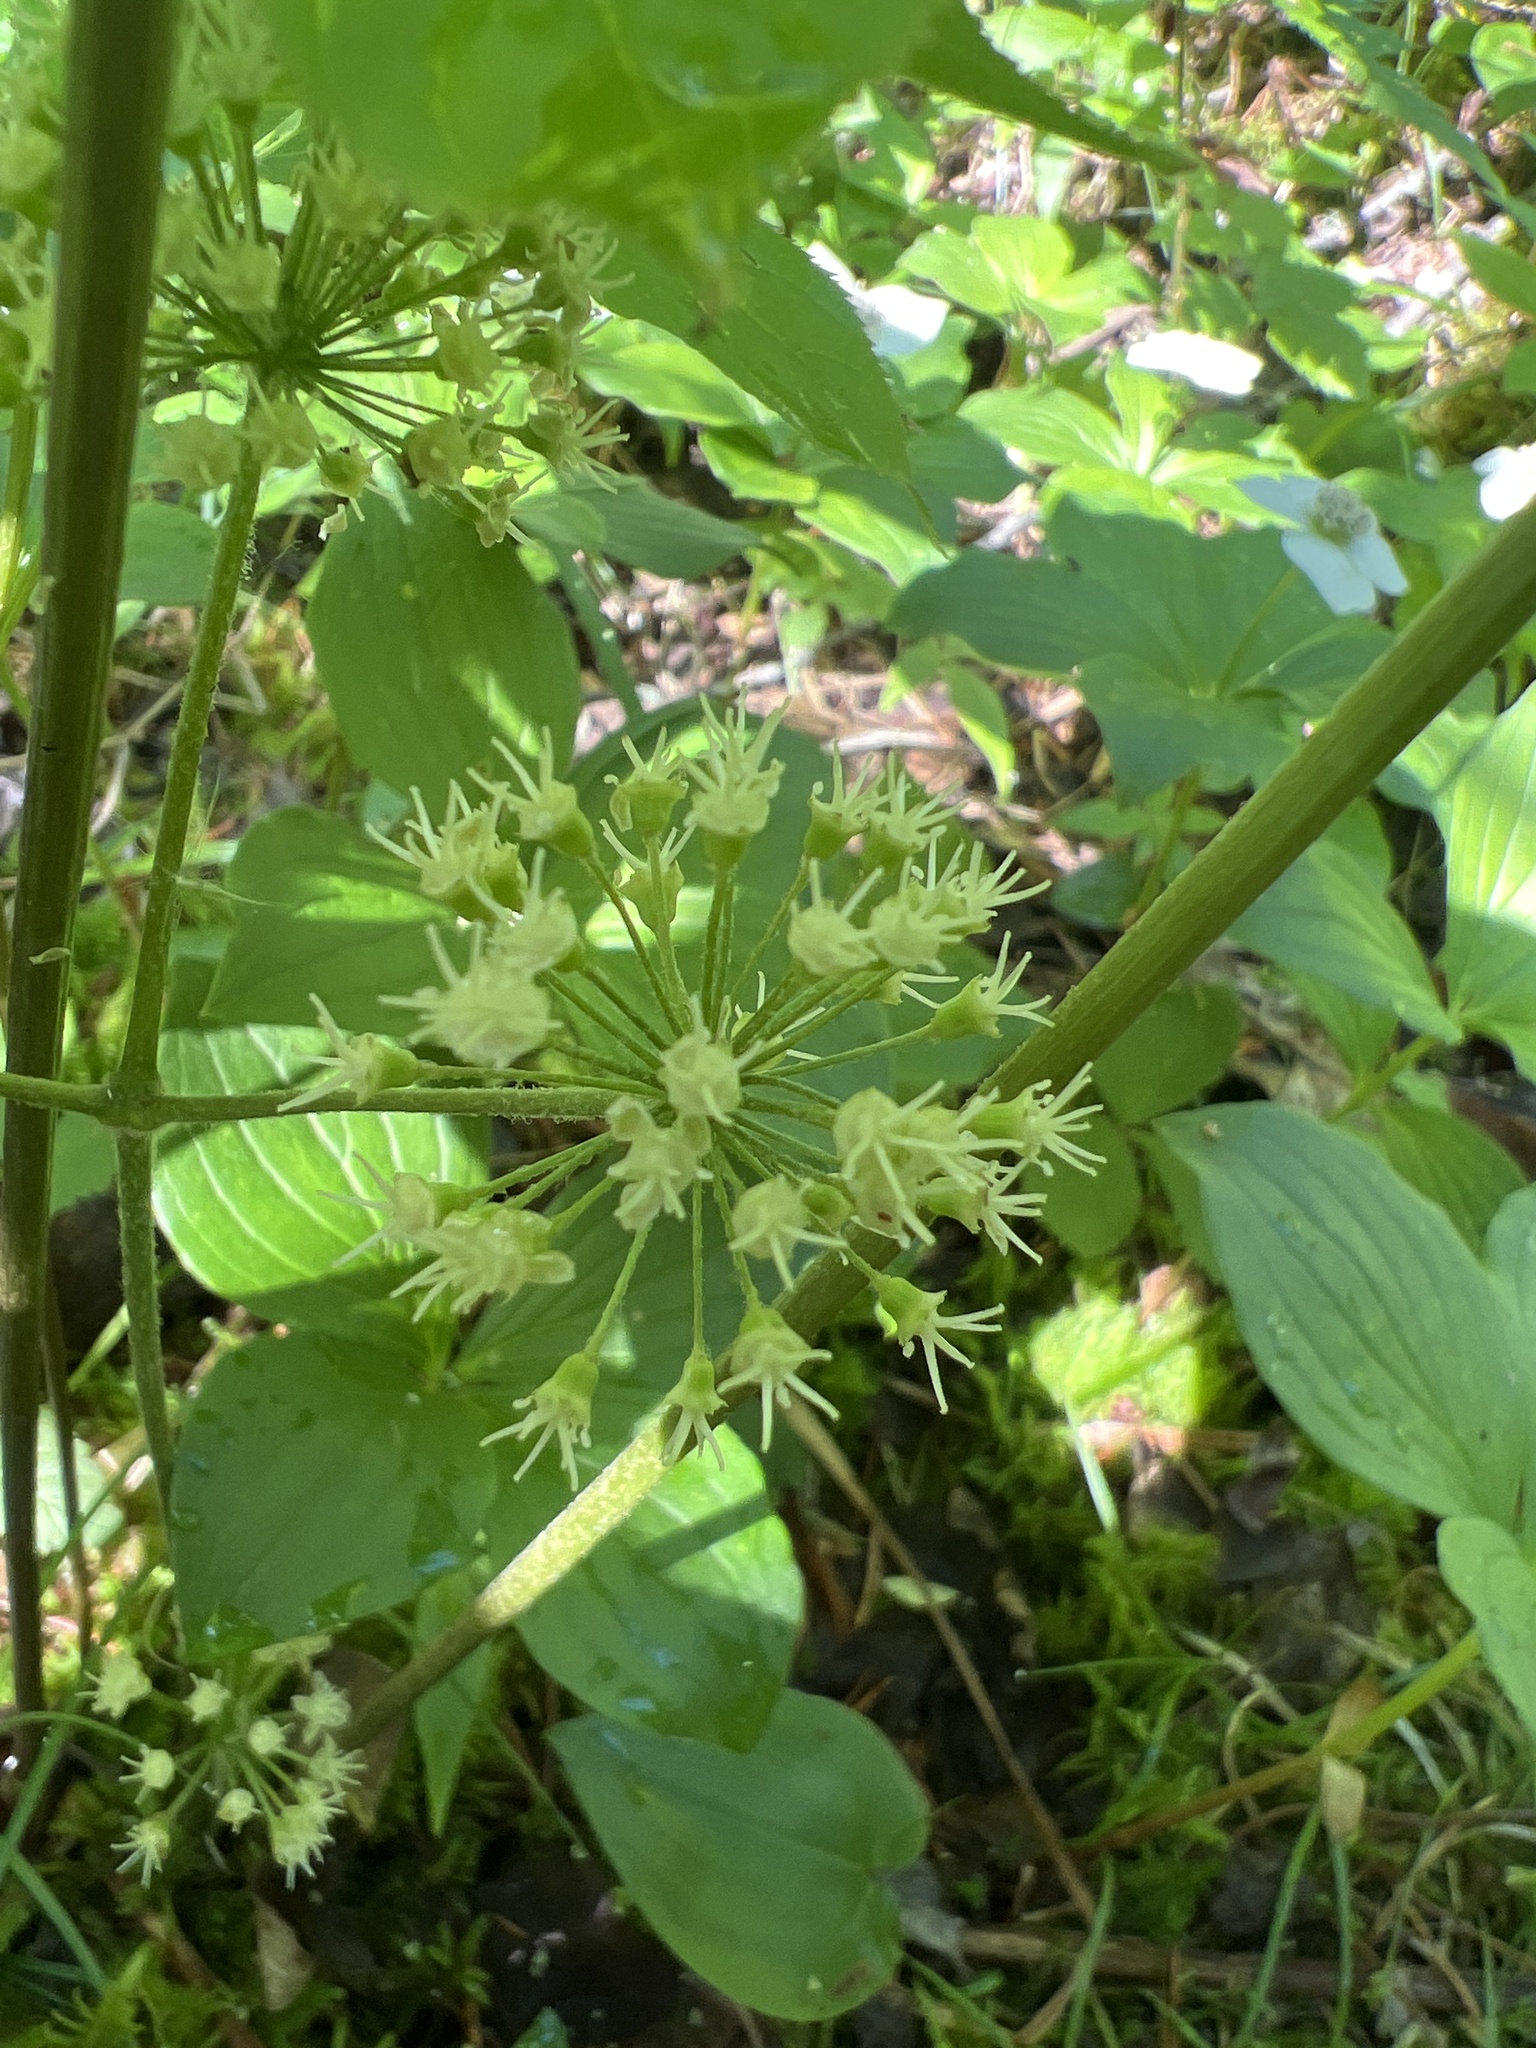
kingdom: Plantae
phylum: Tracheophyta
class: Magnoliopsida
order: Apiales
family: Araliaceae
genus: Aralia
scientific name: Aralia nudicaulis
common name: Wild sarsaparilla
